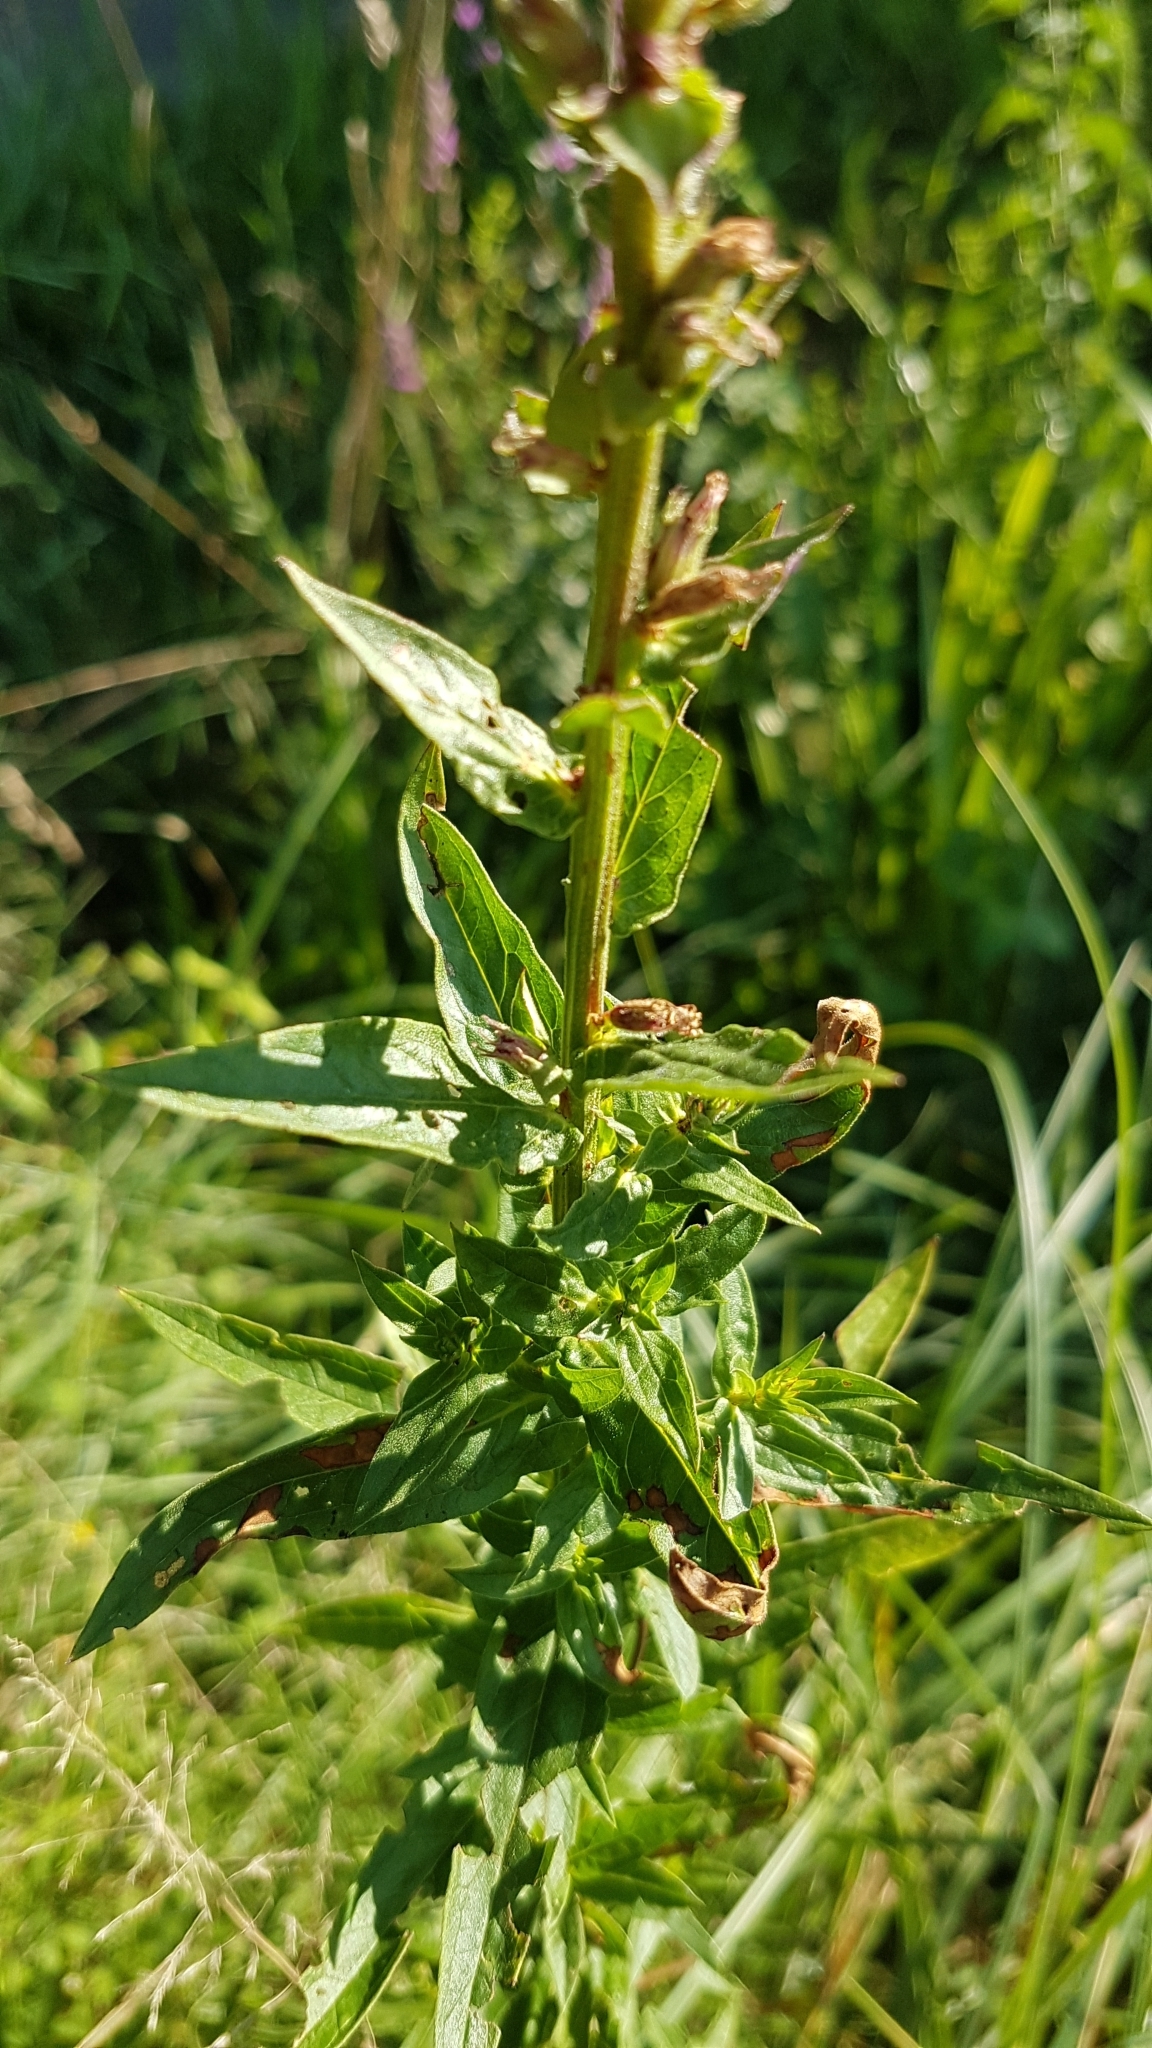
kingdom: Plantae
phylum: Tracheophyta
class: Magnoliopsida
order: Myrtales
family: Lythraceae
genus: Lythrum
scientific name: Lythrum salicaria
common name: Purple loosestrife
